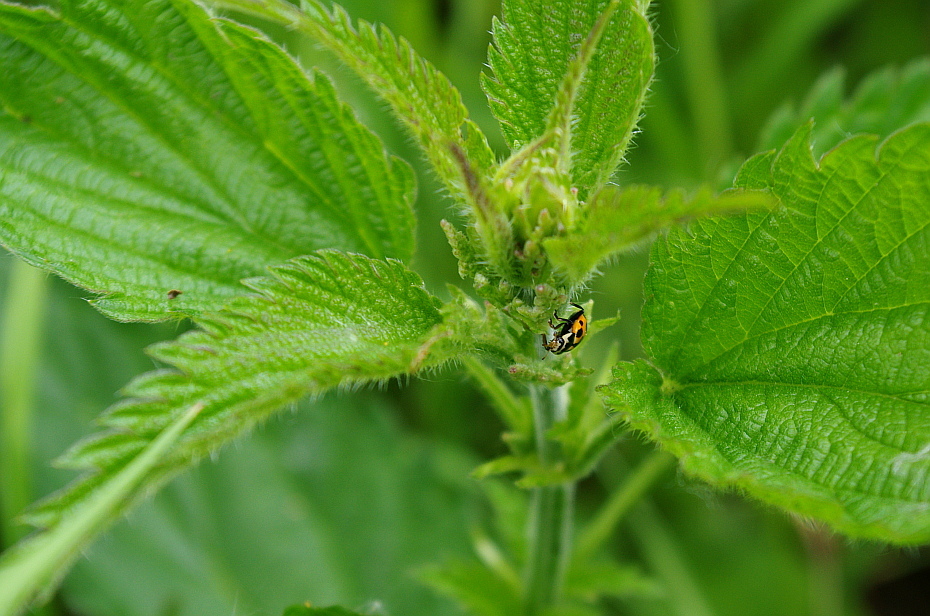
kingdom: Plantae
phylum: Tracheophyta
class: Magnoliopsida
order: Rosales
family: Urticaceae
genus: Urtica
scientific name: Urtica dioica
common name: Common nettle
